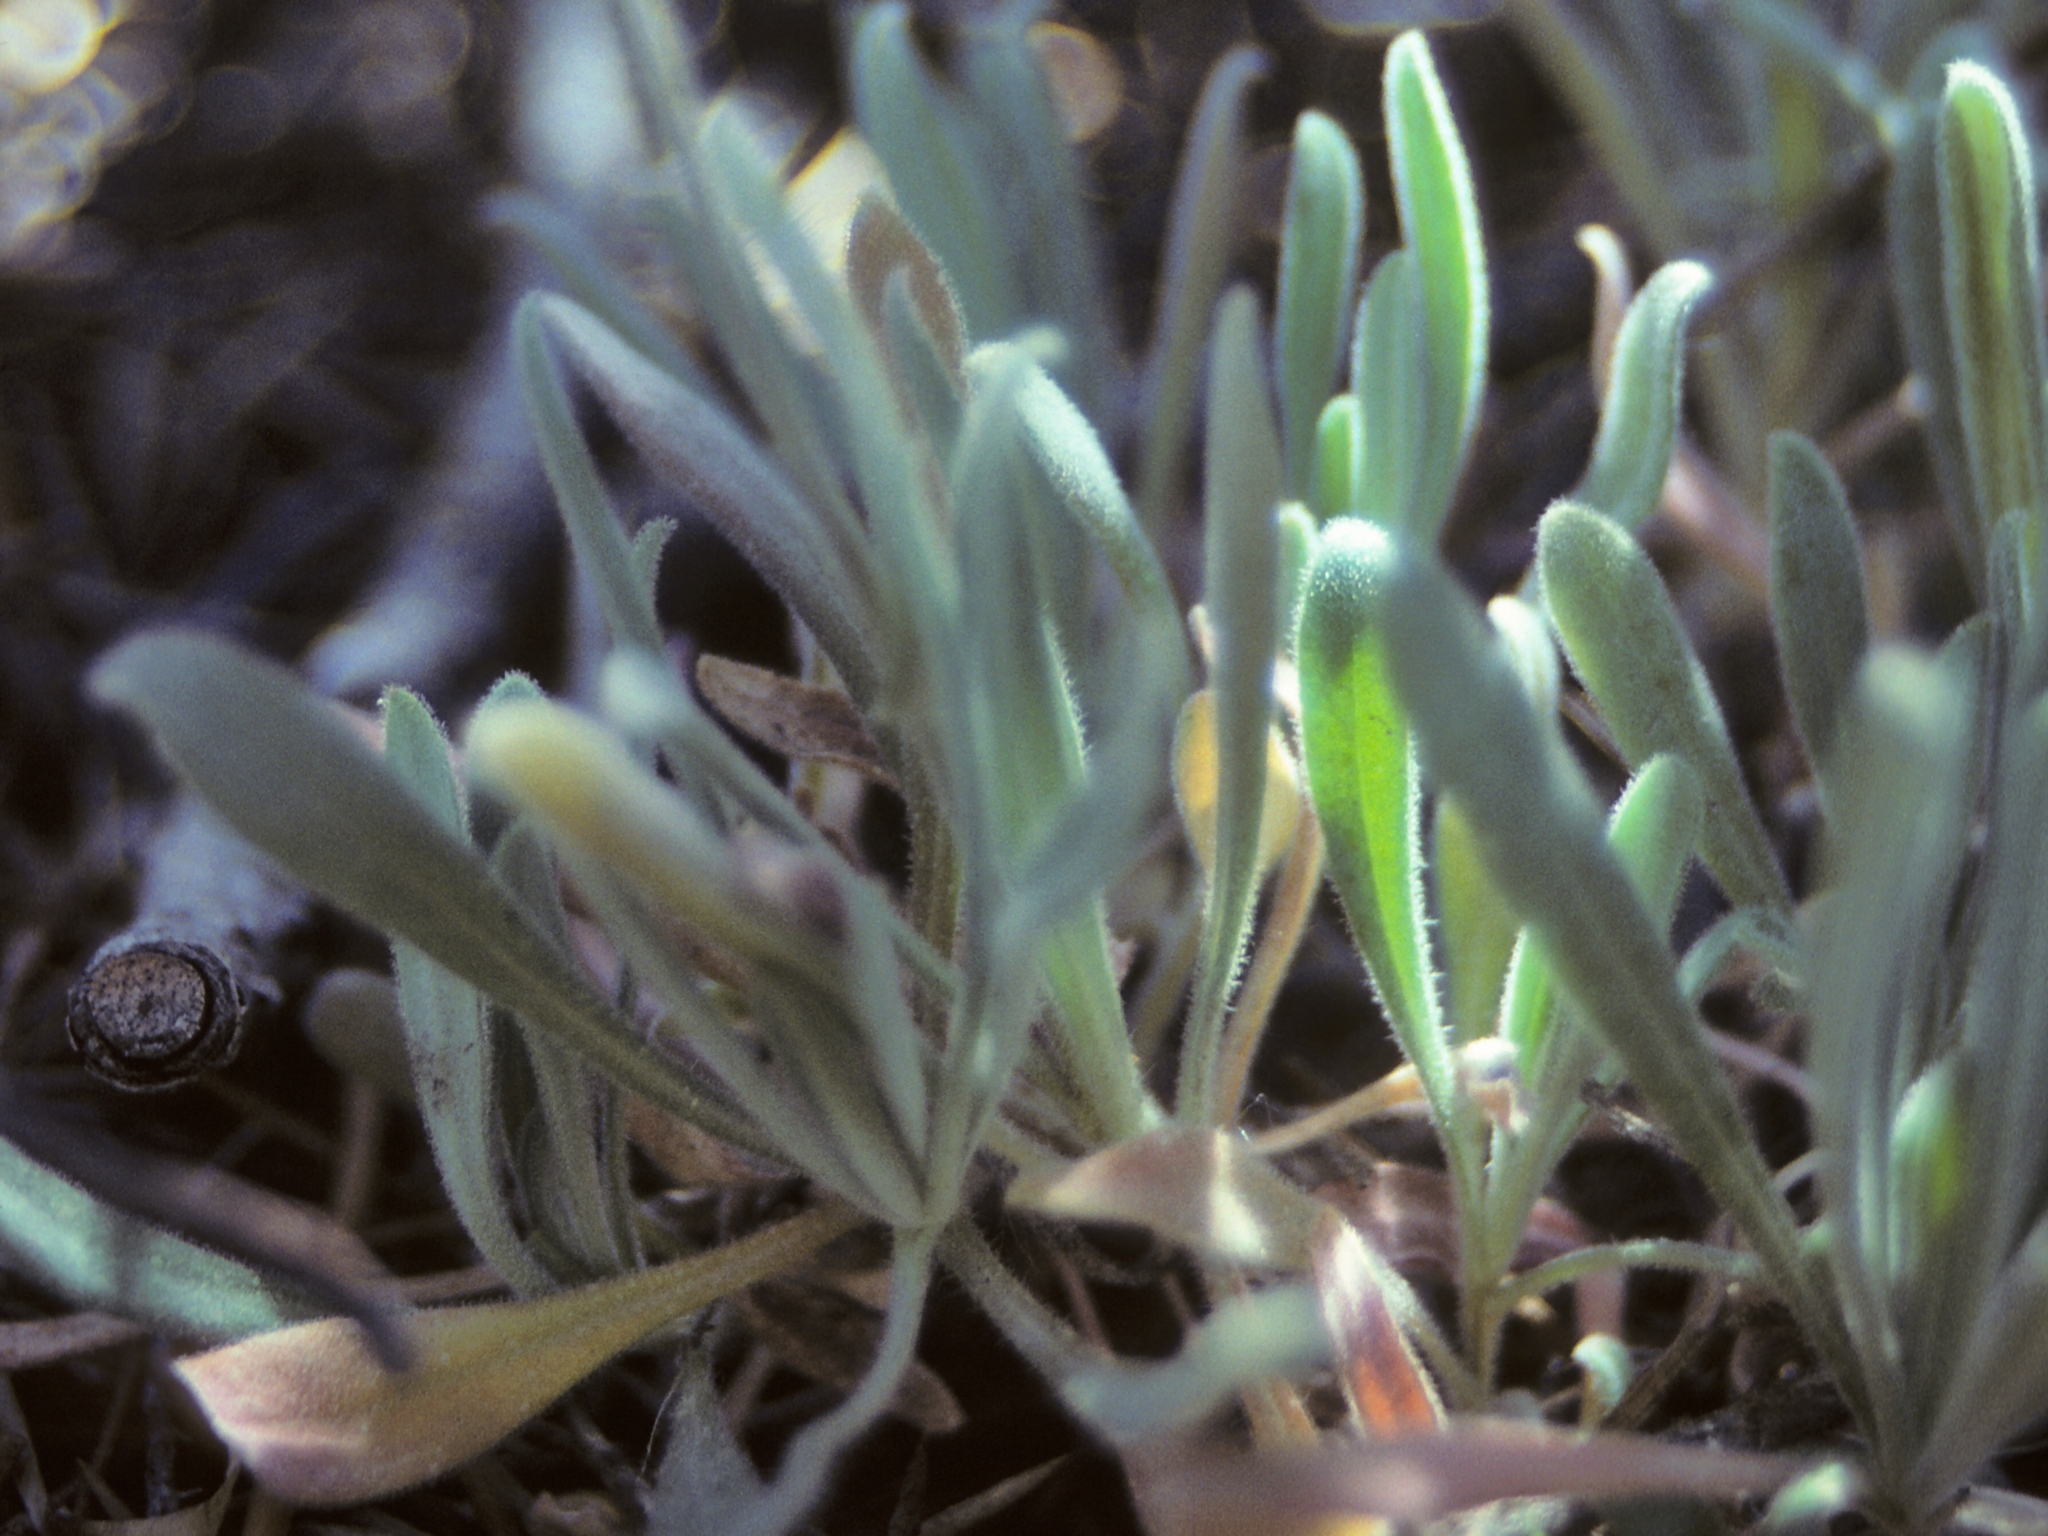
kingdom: Plantae
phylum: Tracheophyta
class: Magnoliopsida
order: Brassicales
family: Brassicaceae
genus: Boechera
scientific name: Boechera sparsiflora
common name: Elegant rockcress
